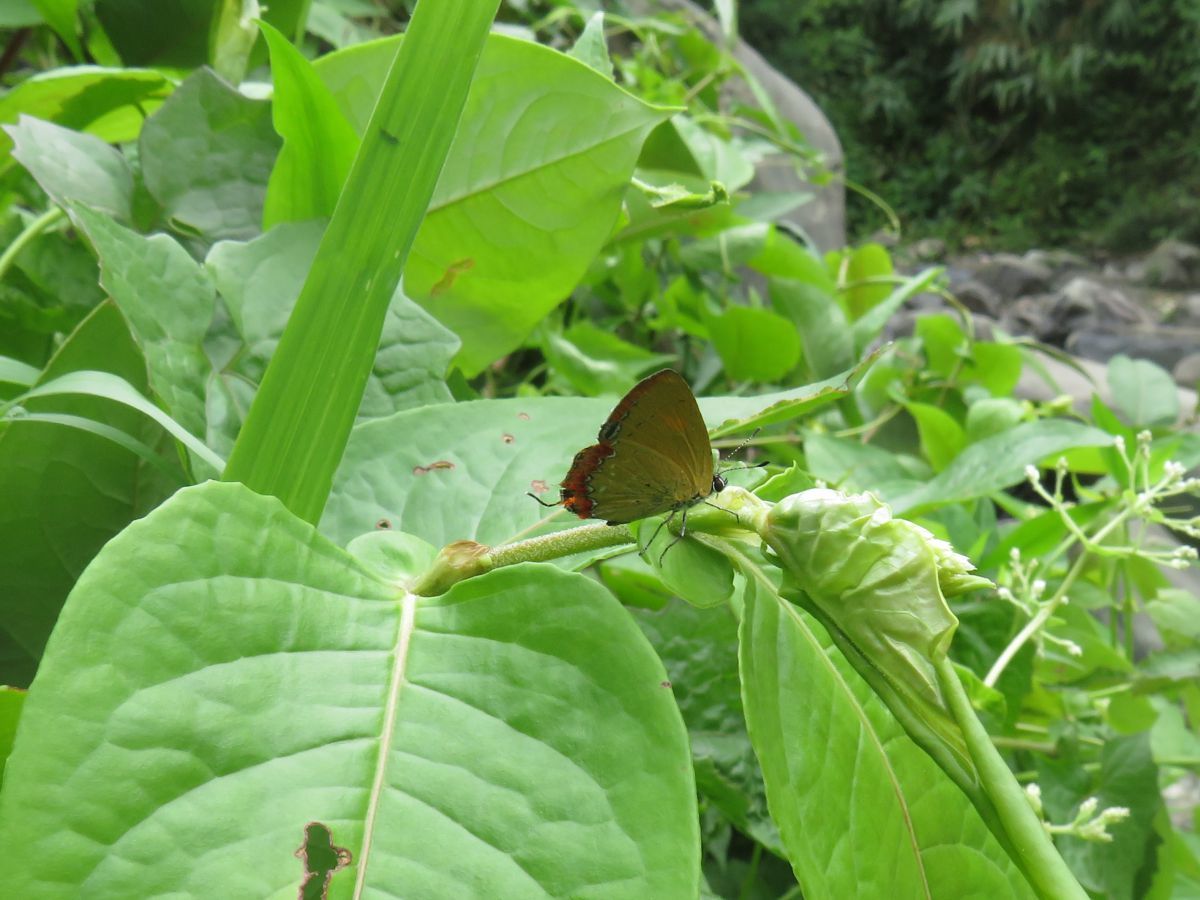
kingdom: Animalia
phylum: Arthropoda
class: Insecta
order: Lepidoptera
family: Lycaenidae
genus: Heliophorus
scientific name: Heliophorus epicles
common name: Purple sapphire
